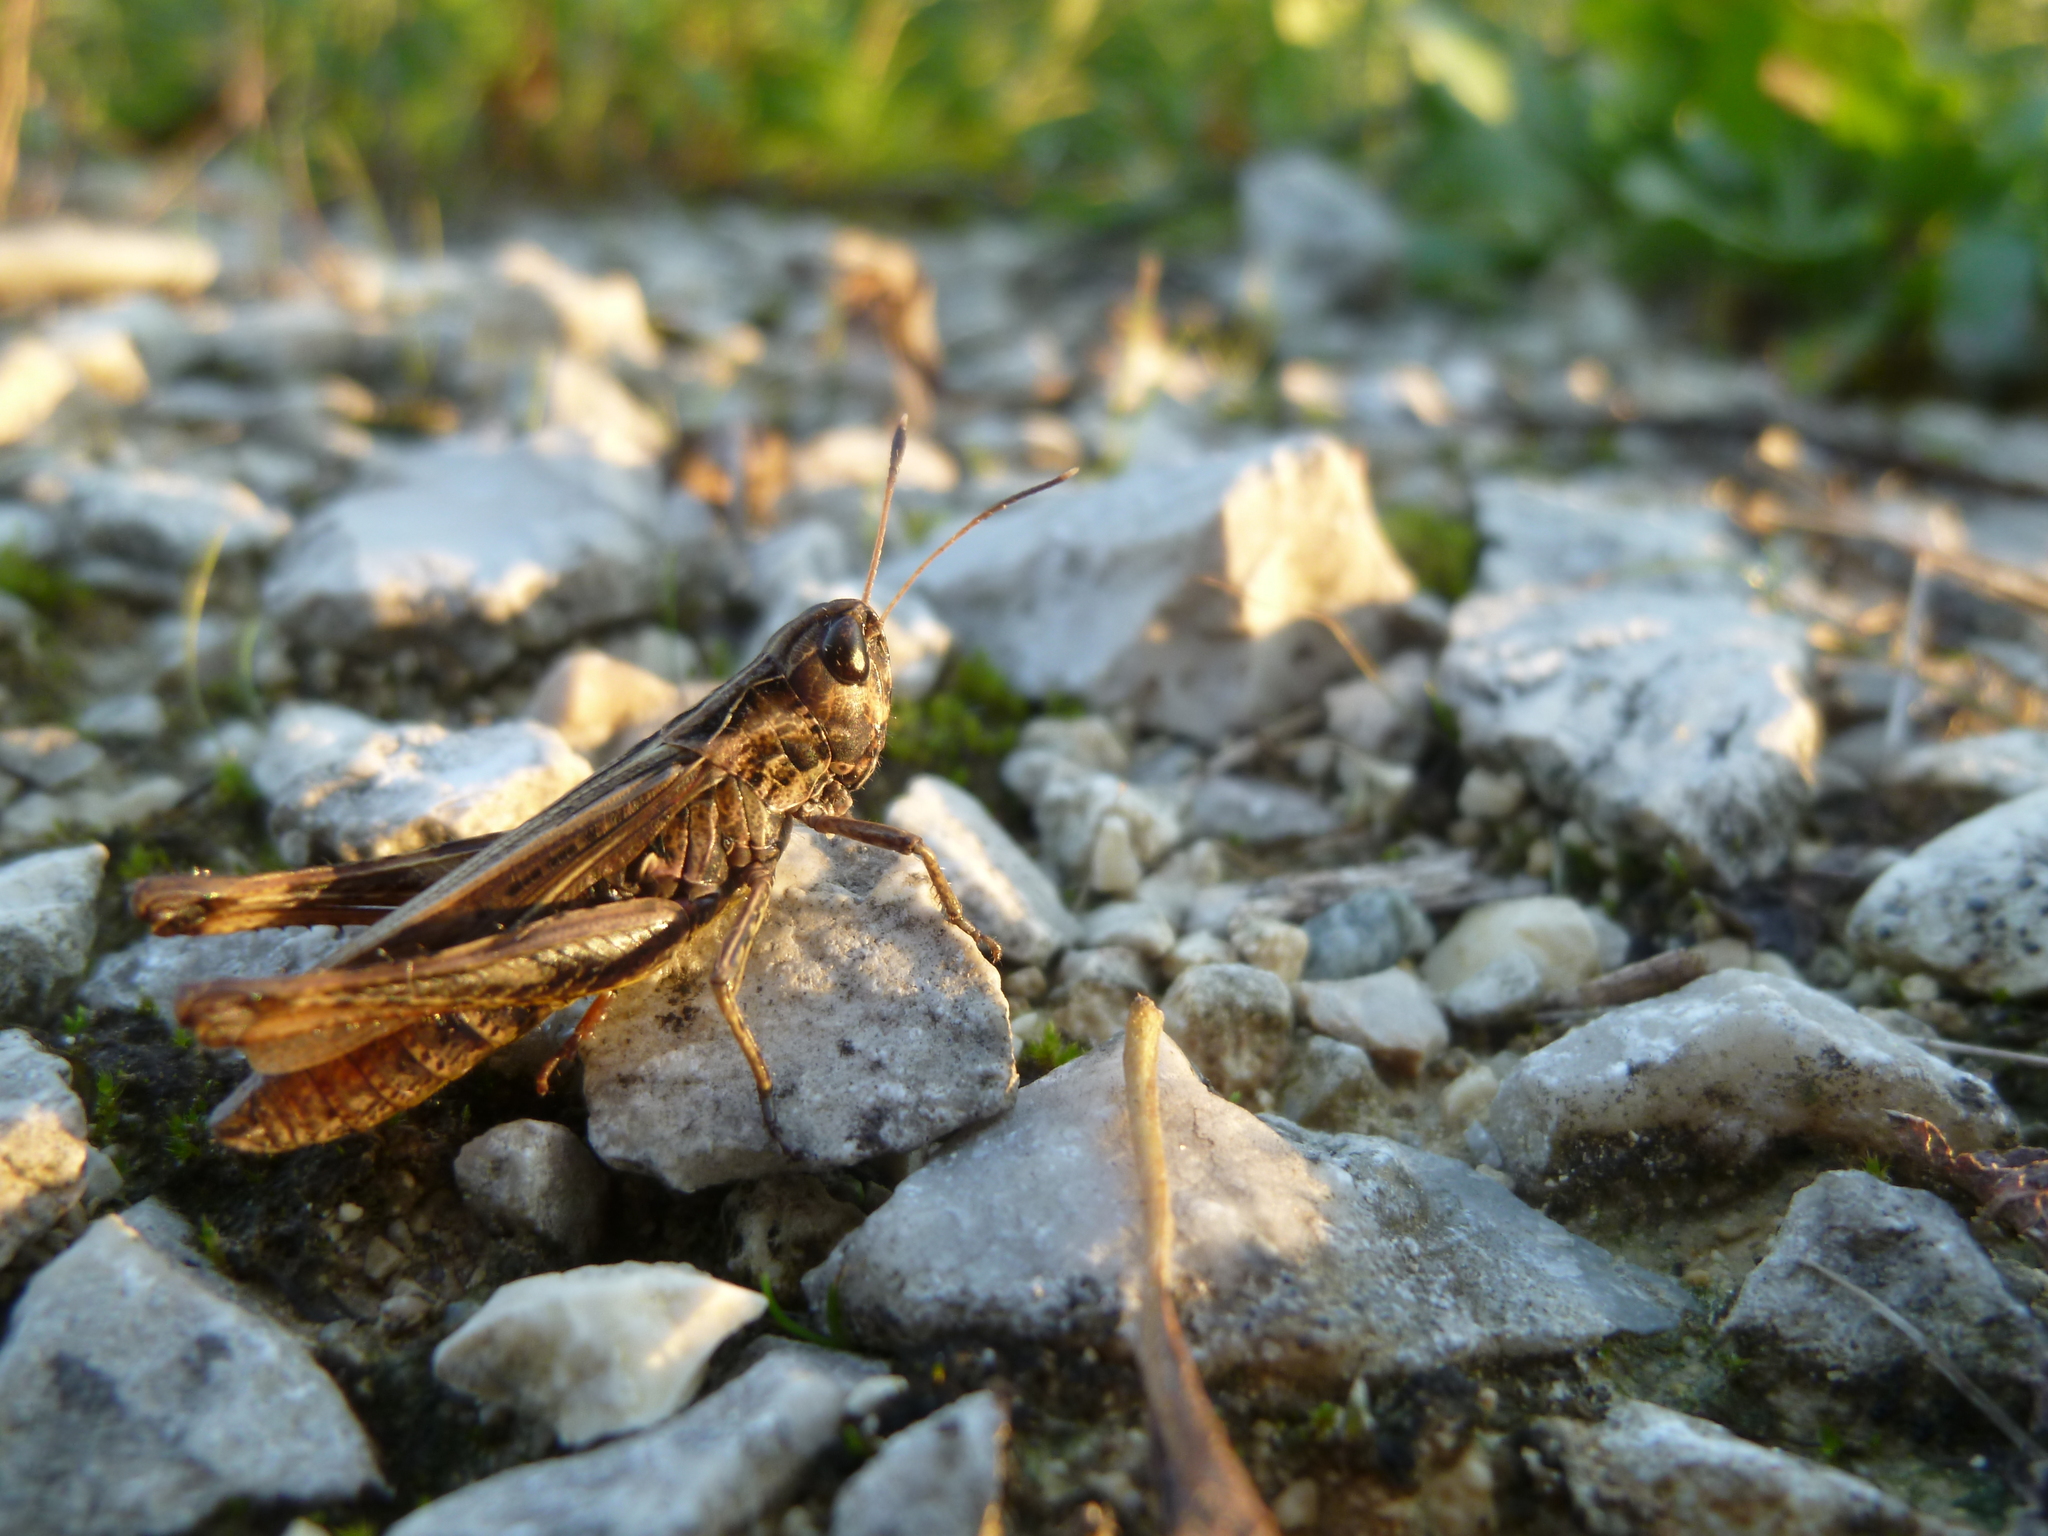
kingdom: Animalia
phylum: Arthropoda
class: Insecta
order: Orthoptera
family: Acrididae
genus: Gomphocerippus
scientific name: Gomphocerippus rufus
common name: Rufous grasshopper
